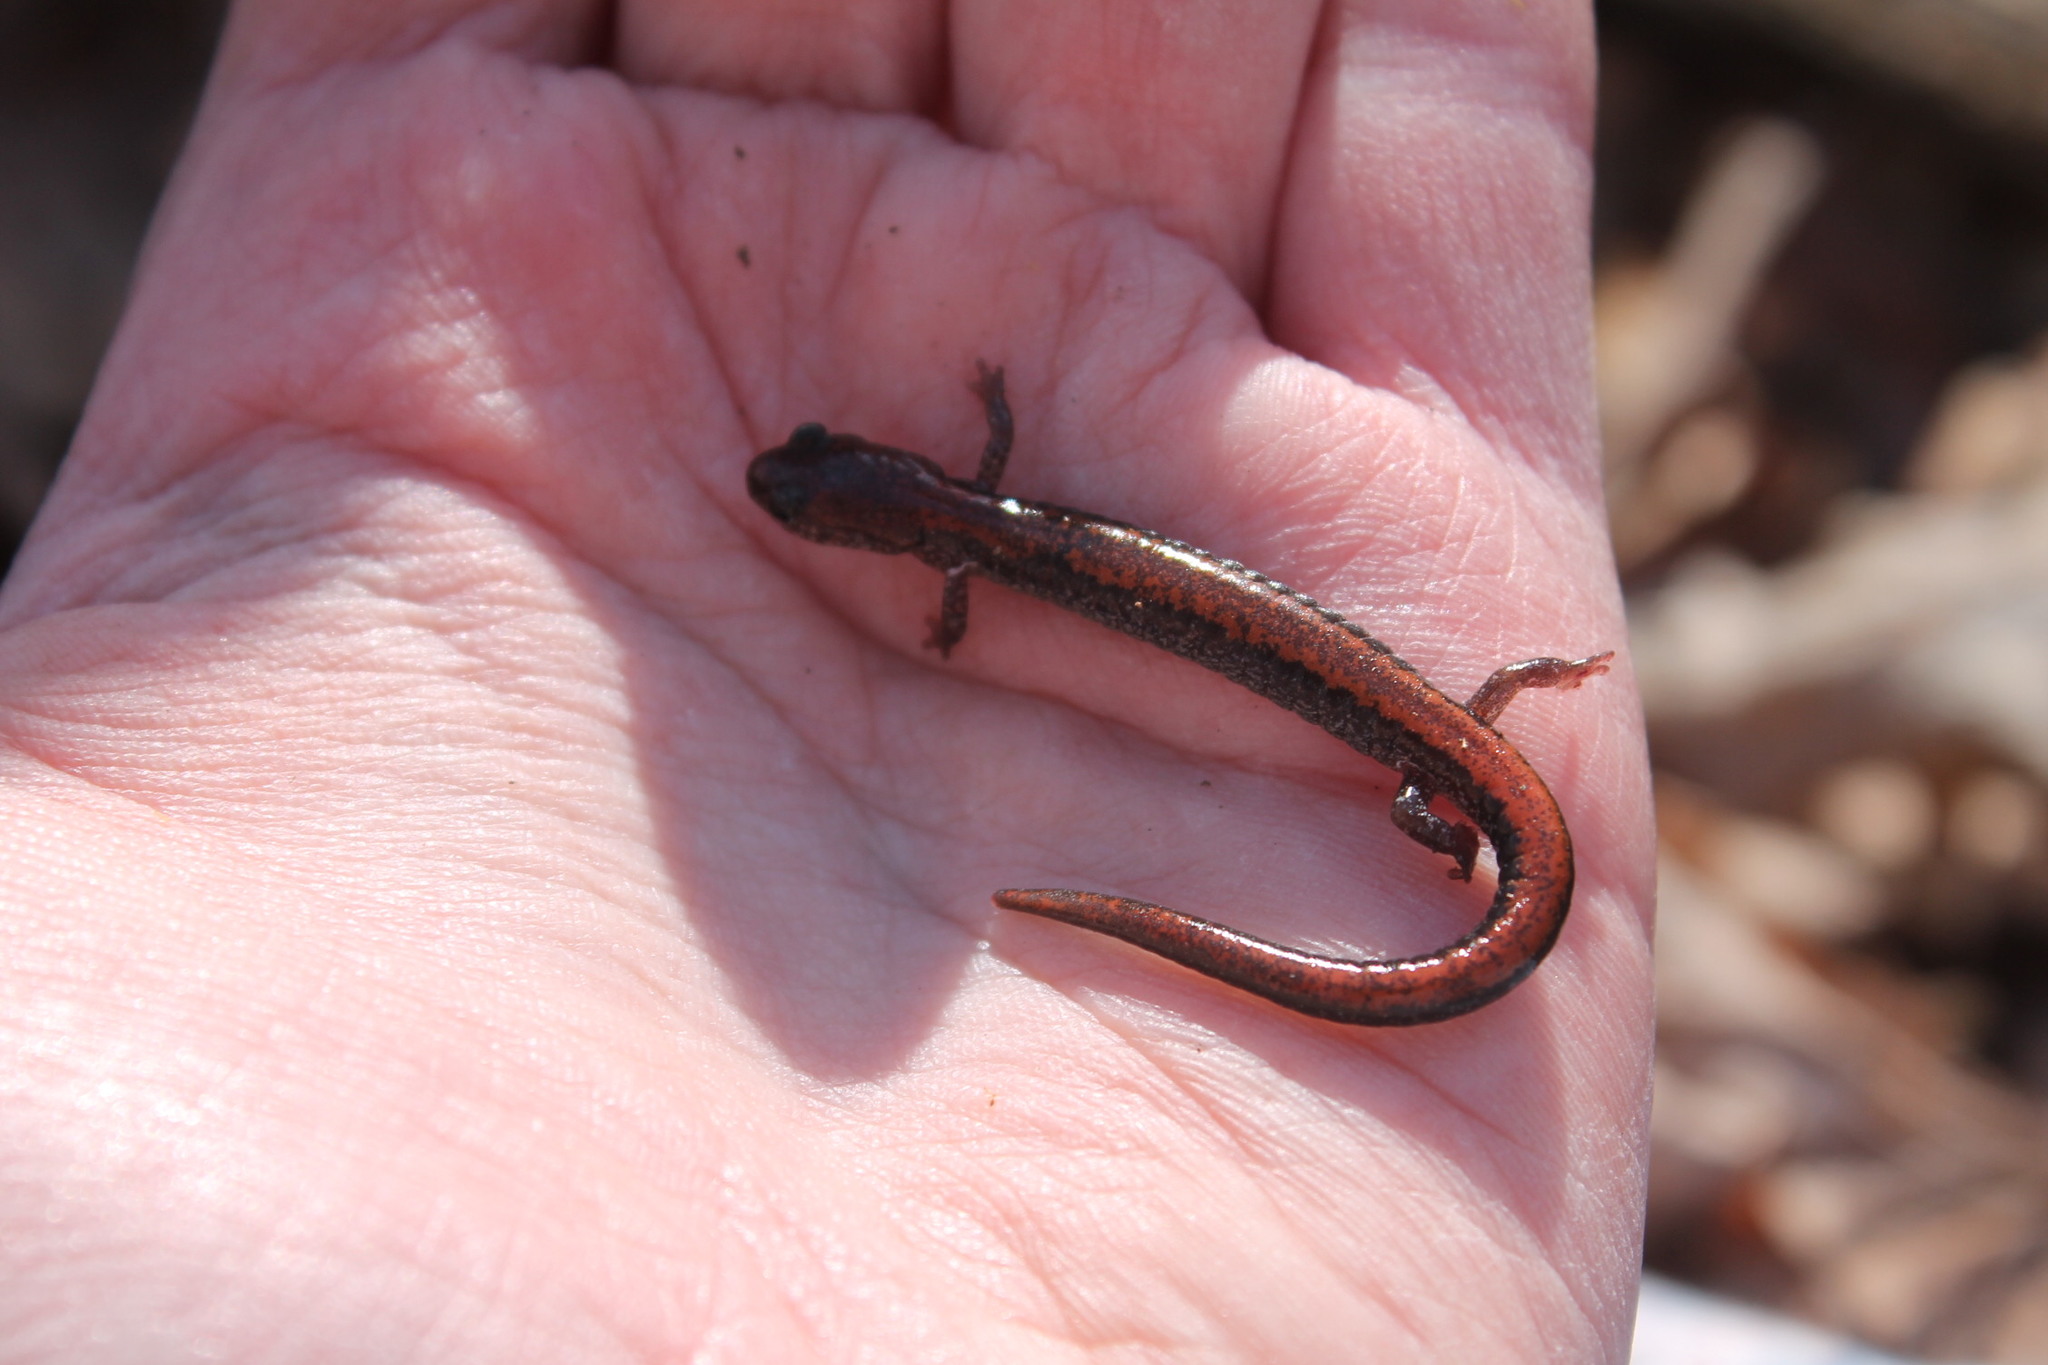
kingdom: Animalia
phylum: Chordata
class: Amphibia
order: Caudata
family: Plethodontidae
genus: Plethodon
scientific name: Plethodon cinereus
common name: Redback salamander
